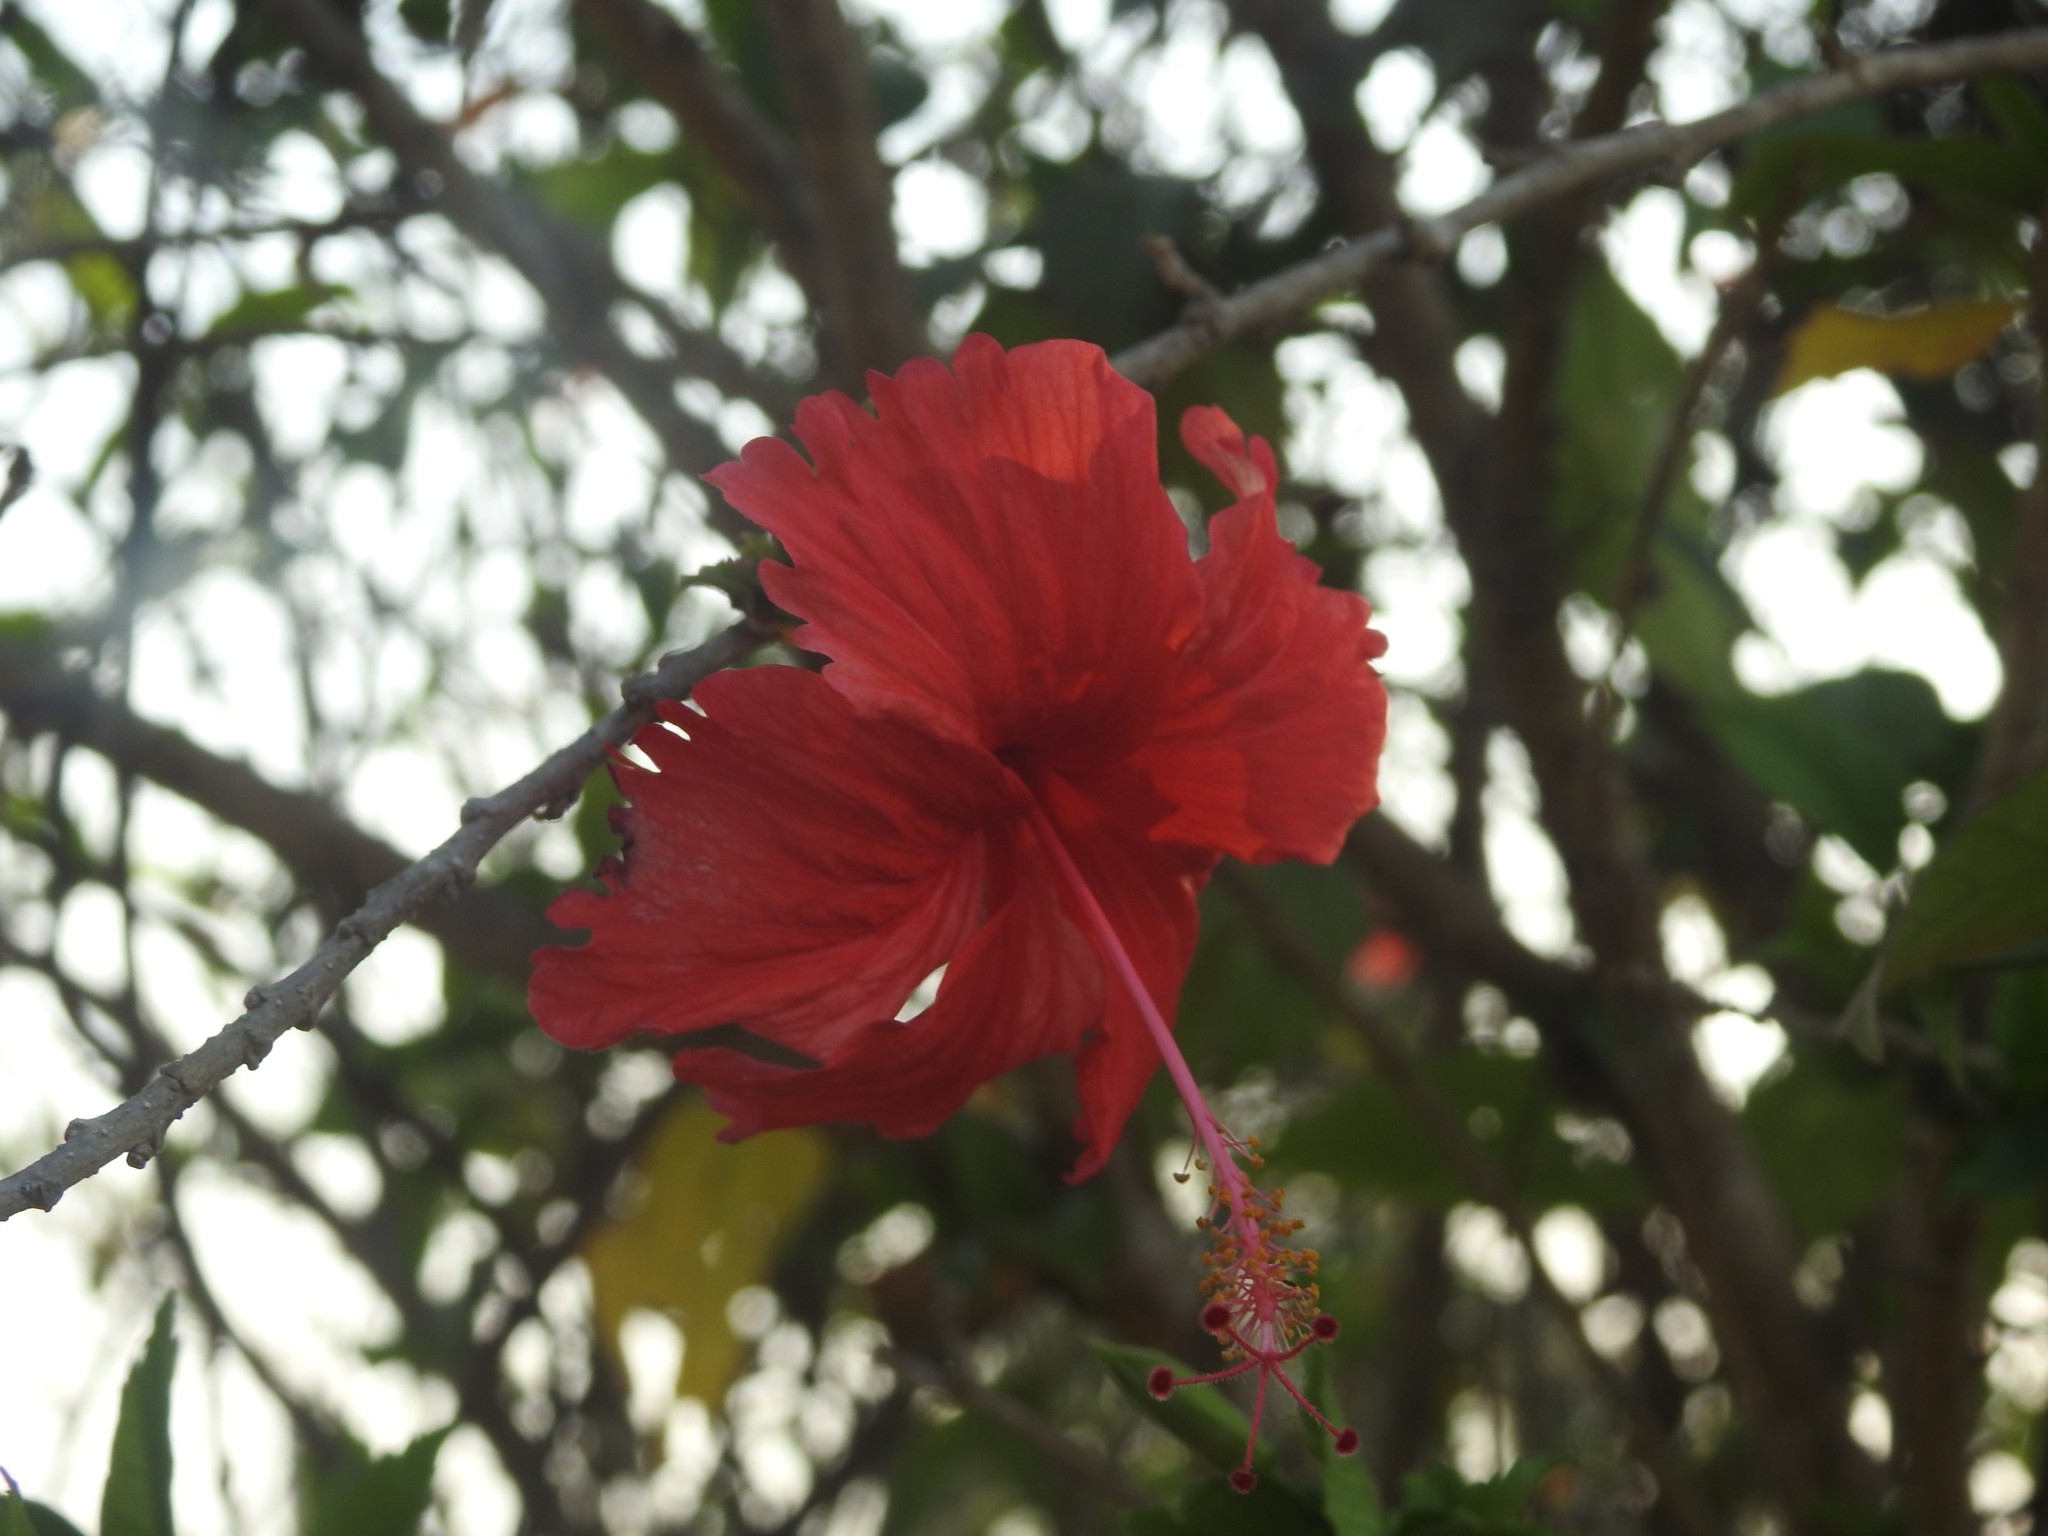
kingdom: Plantae
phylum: Tracheophyta
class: Magnoliopsida
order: Malvales
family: Malvaceae
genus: Hibiscus
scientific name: Hibiscus archeri
